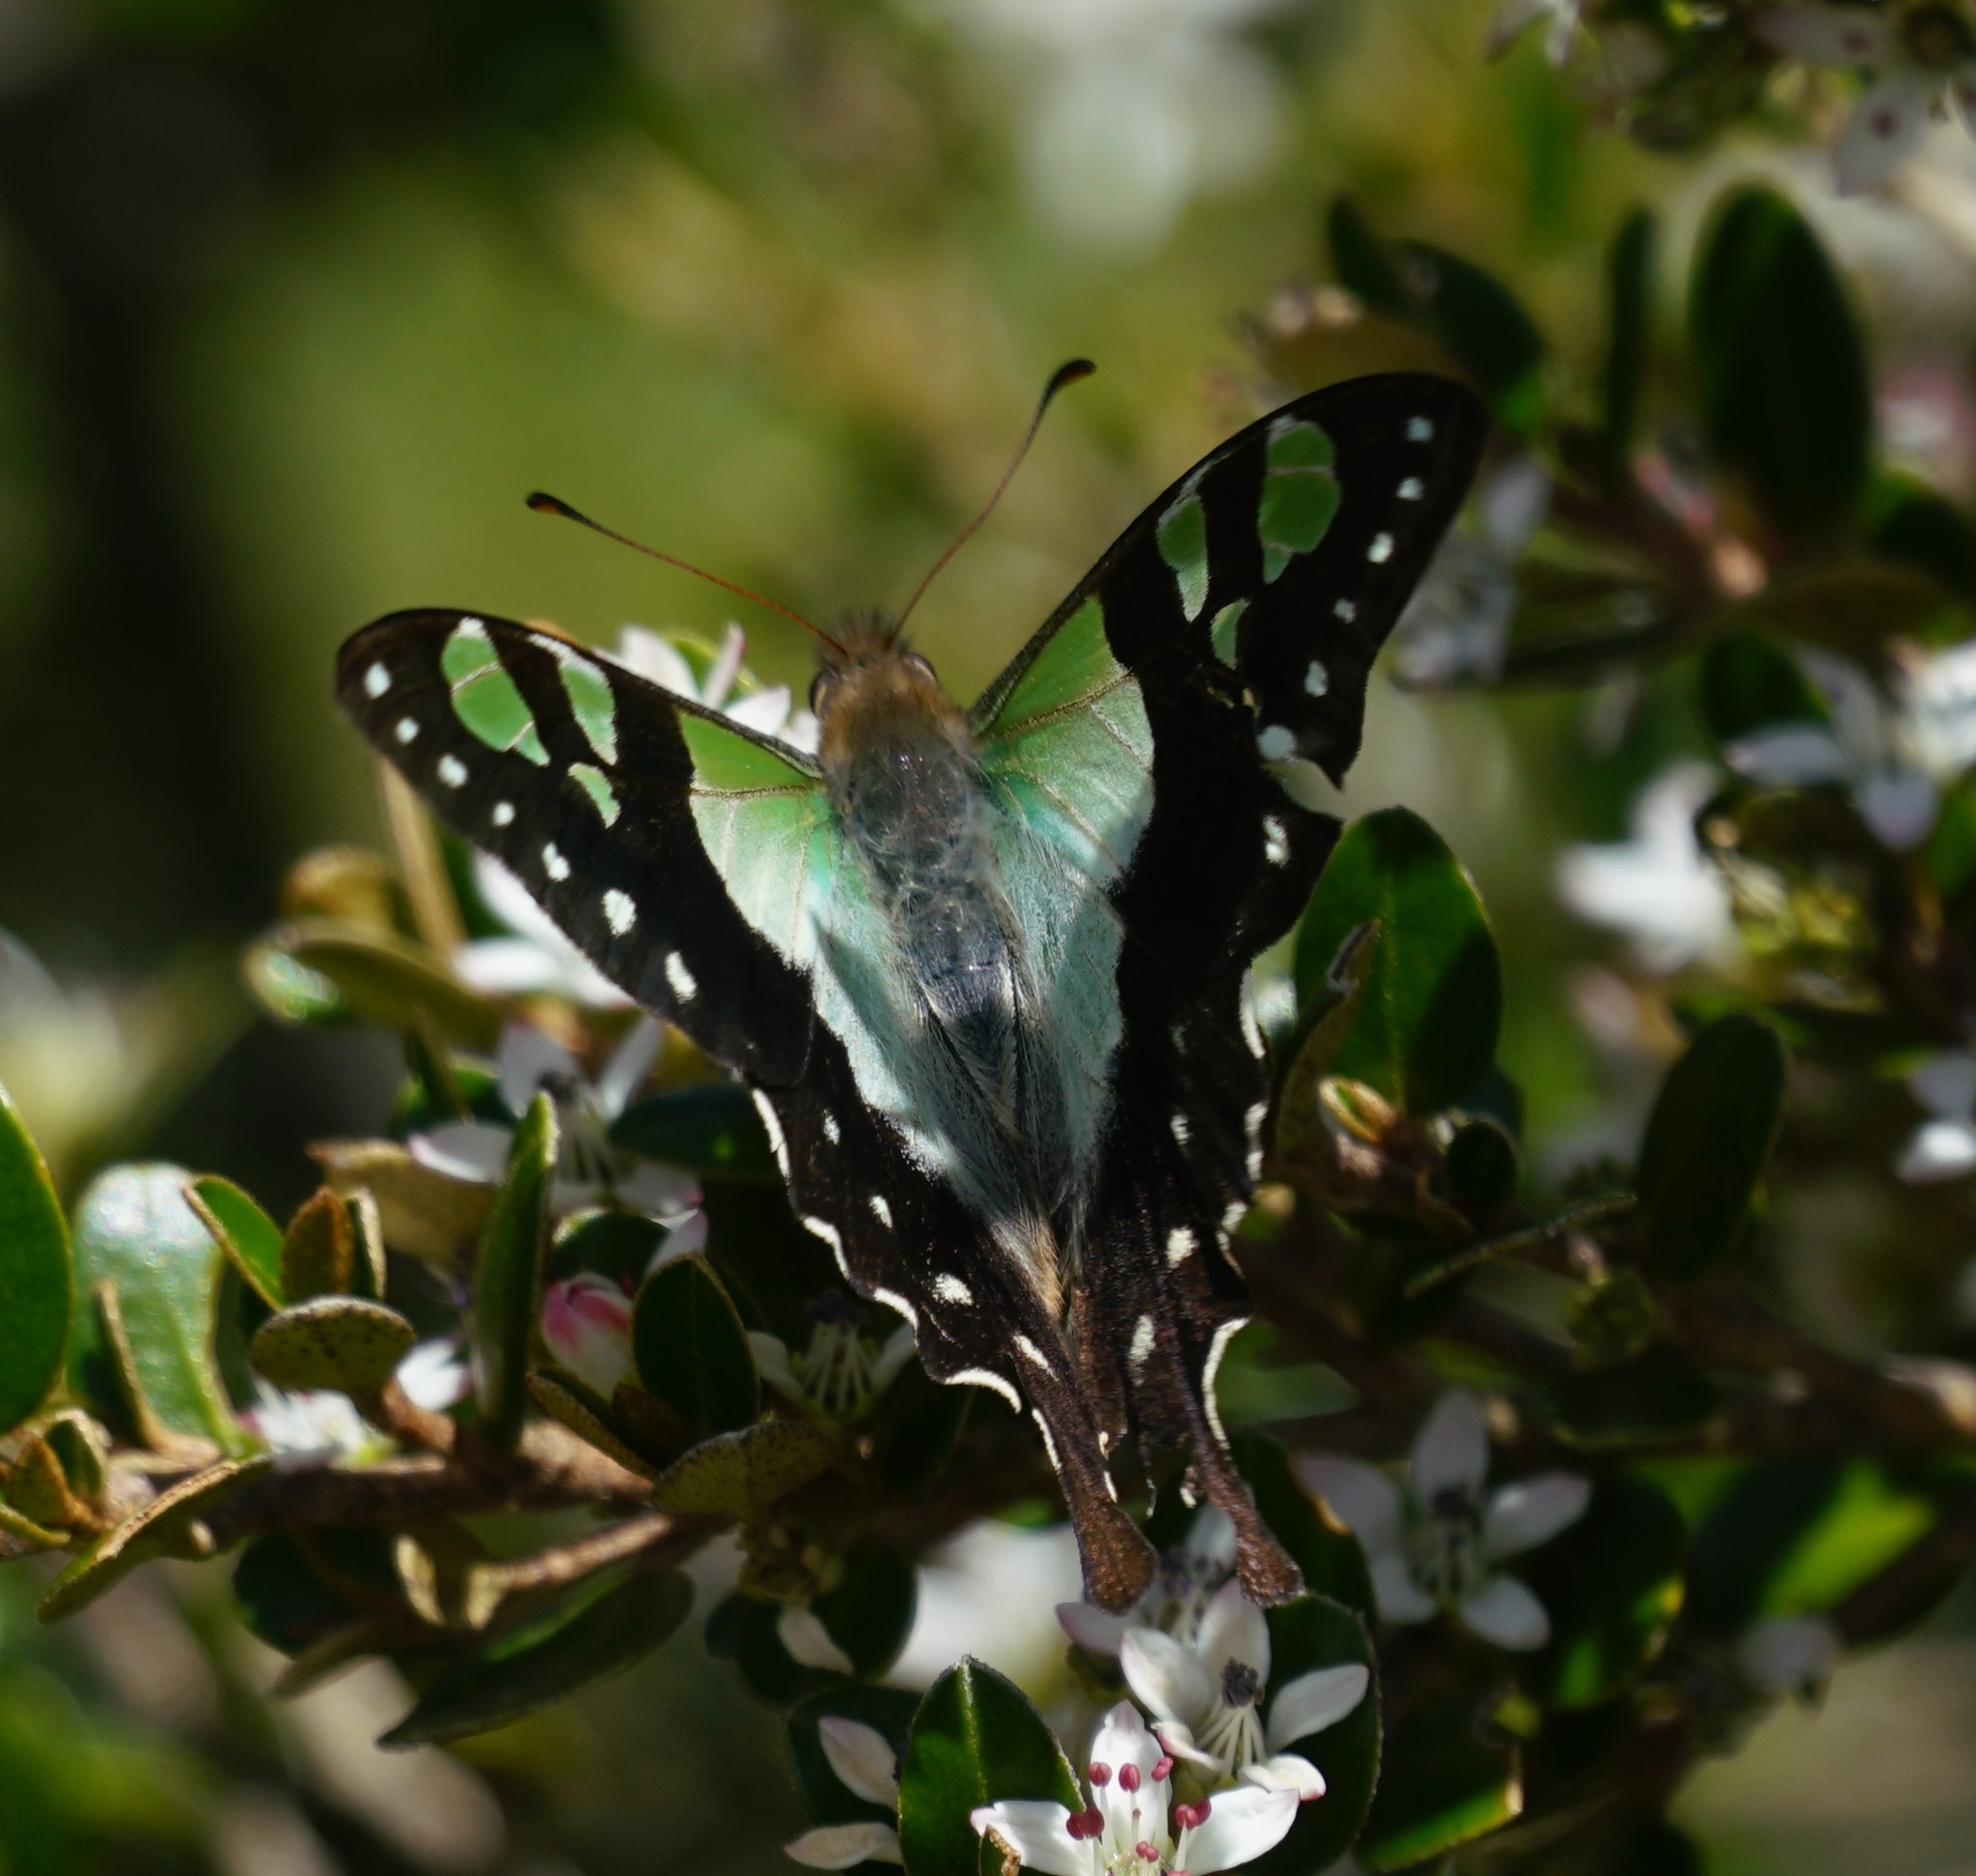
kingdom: Animalia
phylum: Arthropoda
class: Insecta
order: Lepidoptera
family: Papilionidae
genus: Graphium
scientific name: Graphium macleayanus
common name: Macleay's swallowtail
